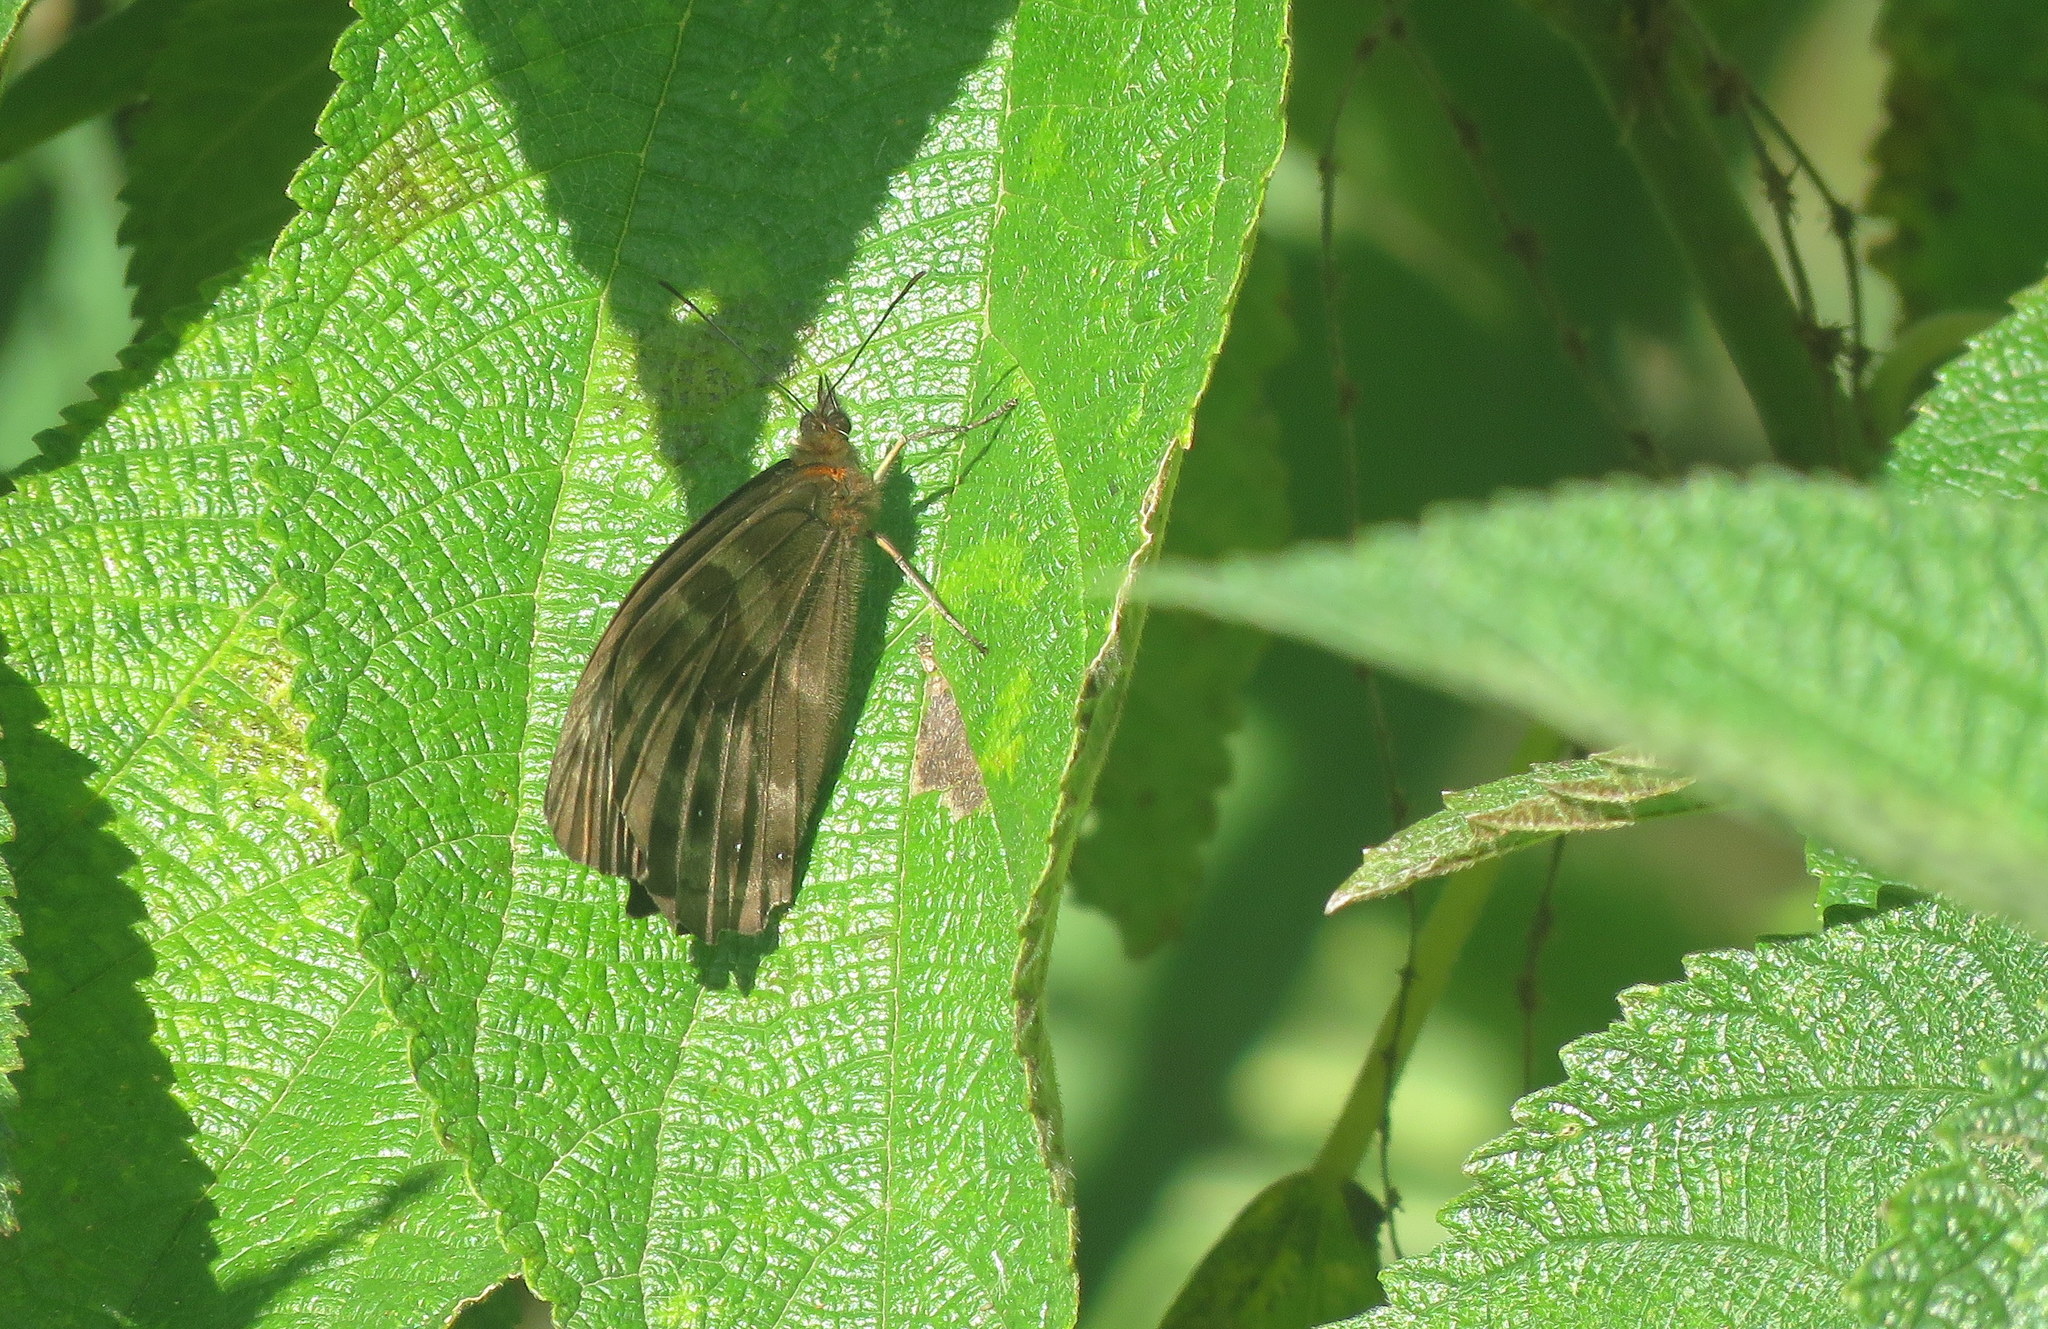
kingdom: Animalia
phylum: Arthropoda
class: Insecta
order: Lepidoptera
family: Nymphalidae
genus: Pronophila
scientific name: Pronophila unifasciata
